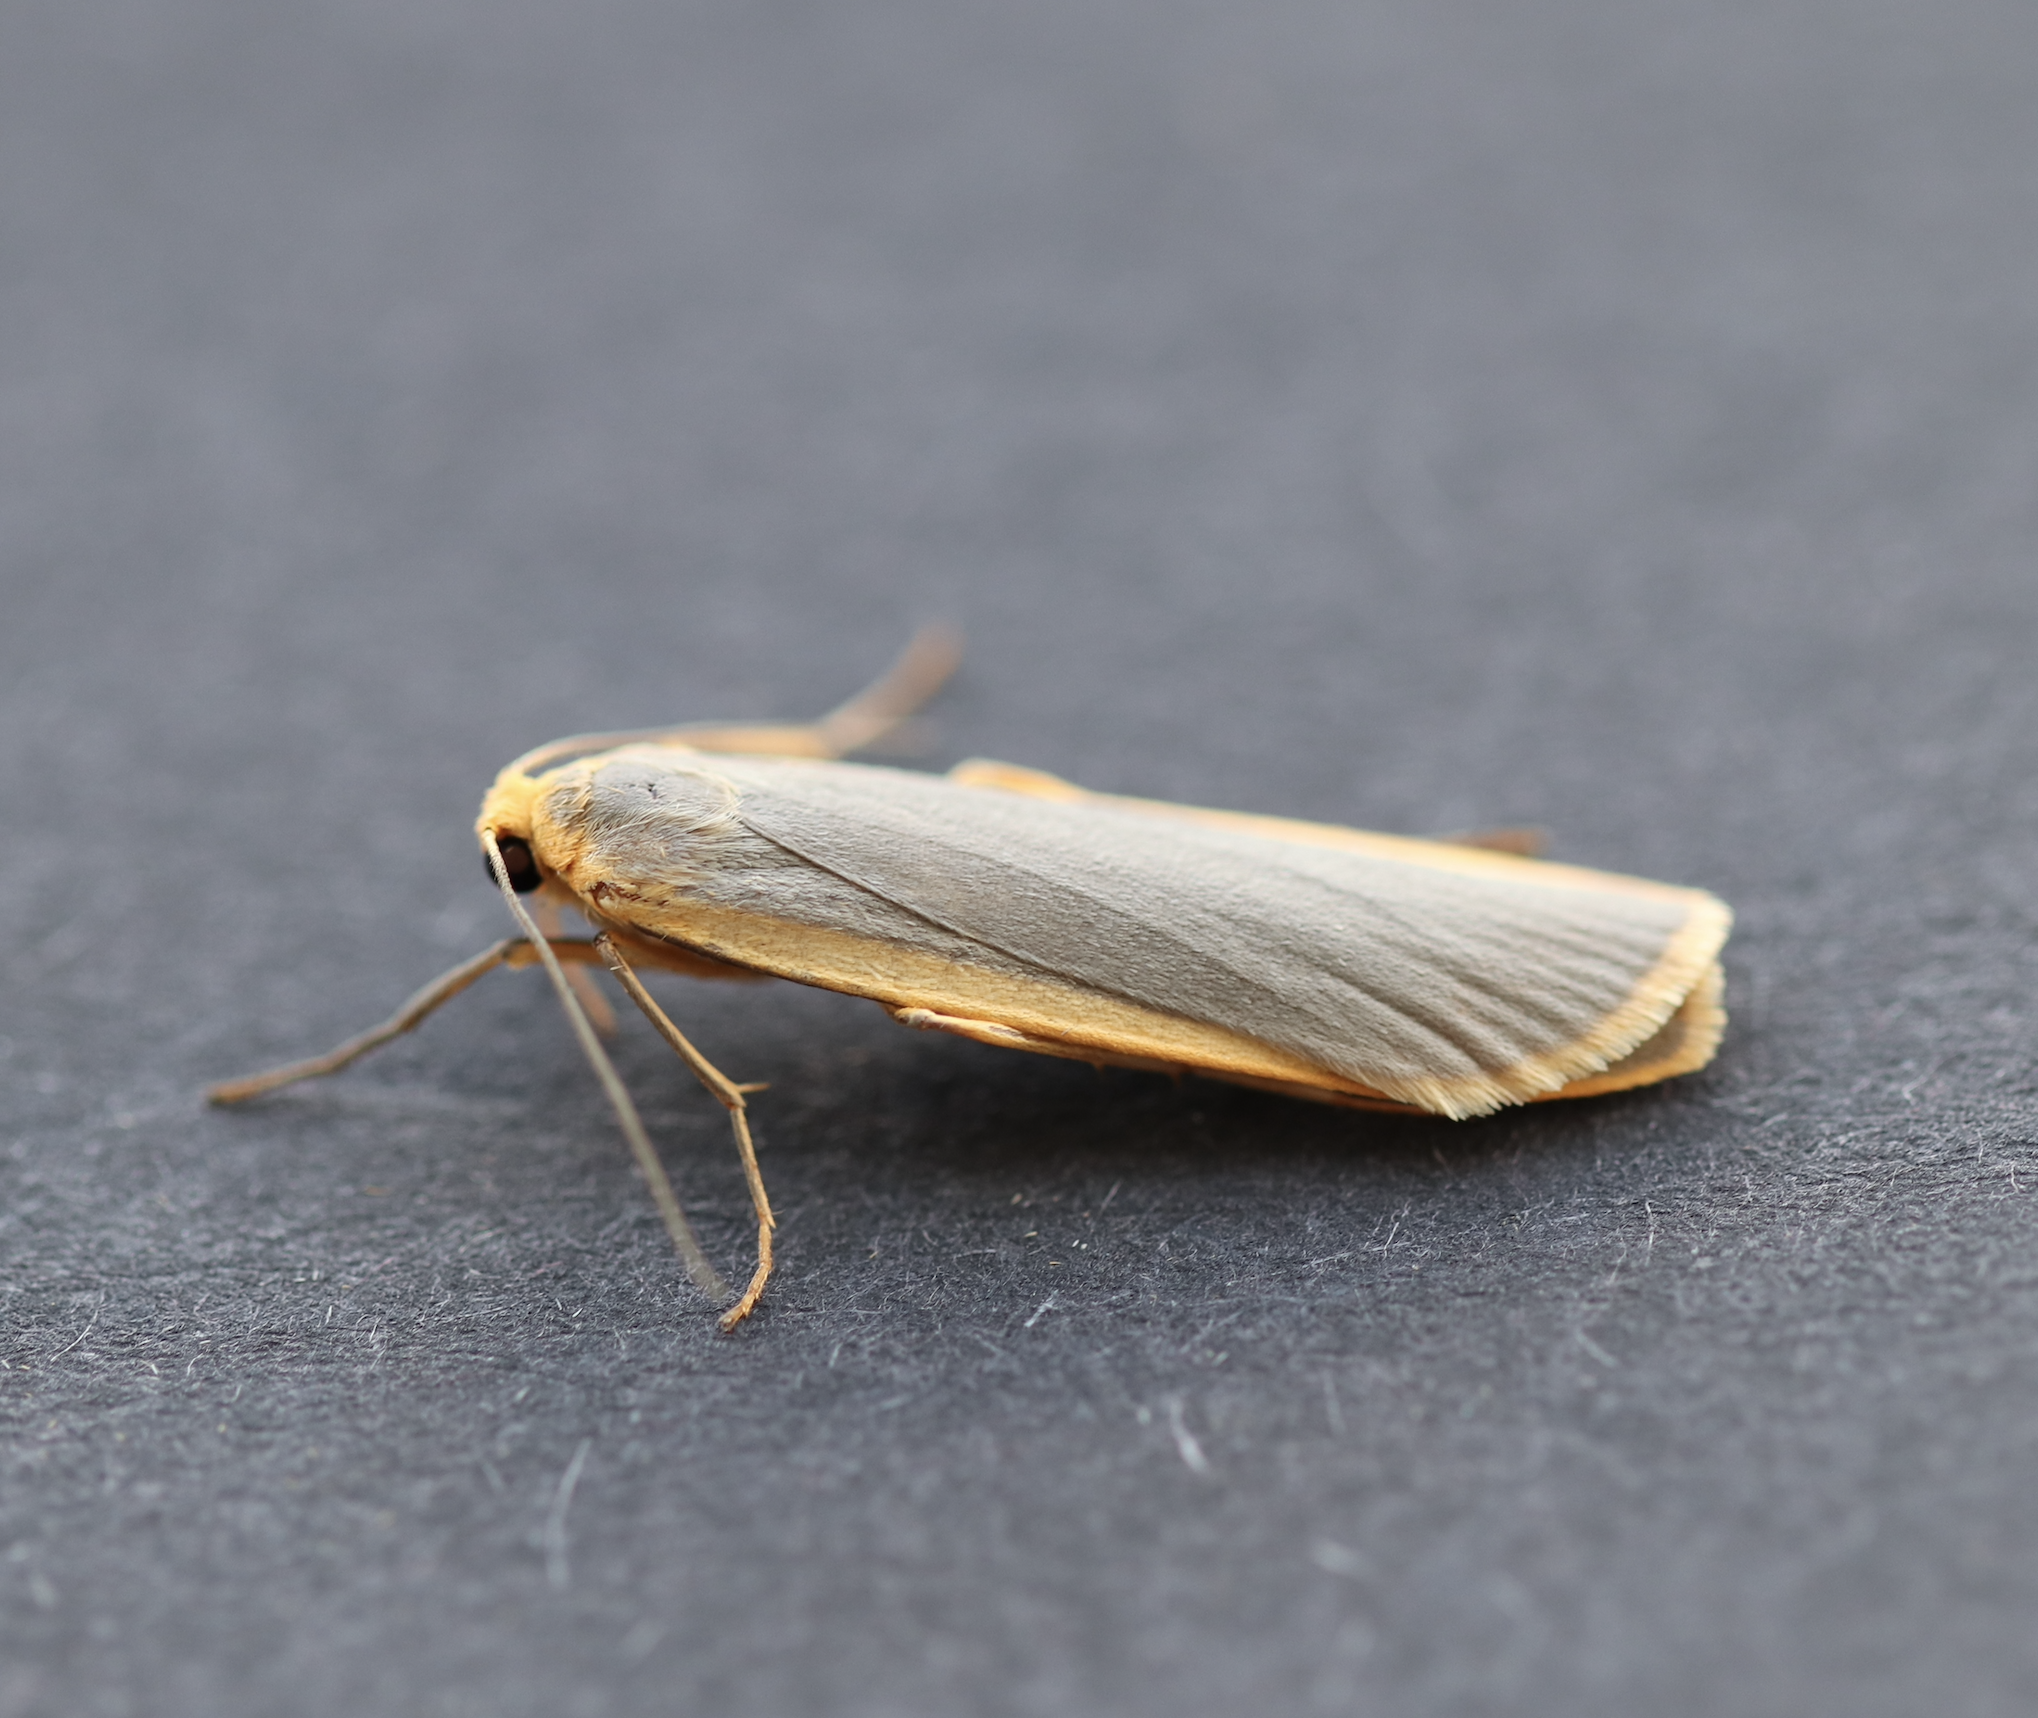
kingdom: Animalia
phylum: Arthropoda
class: Insecta
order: Lepidoptera
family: Erebidae
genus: Nyea
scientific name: Nyea lurideola
